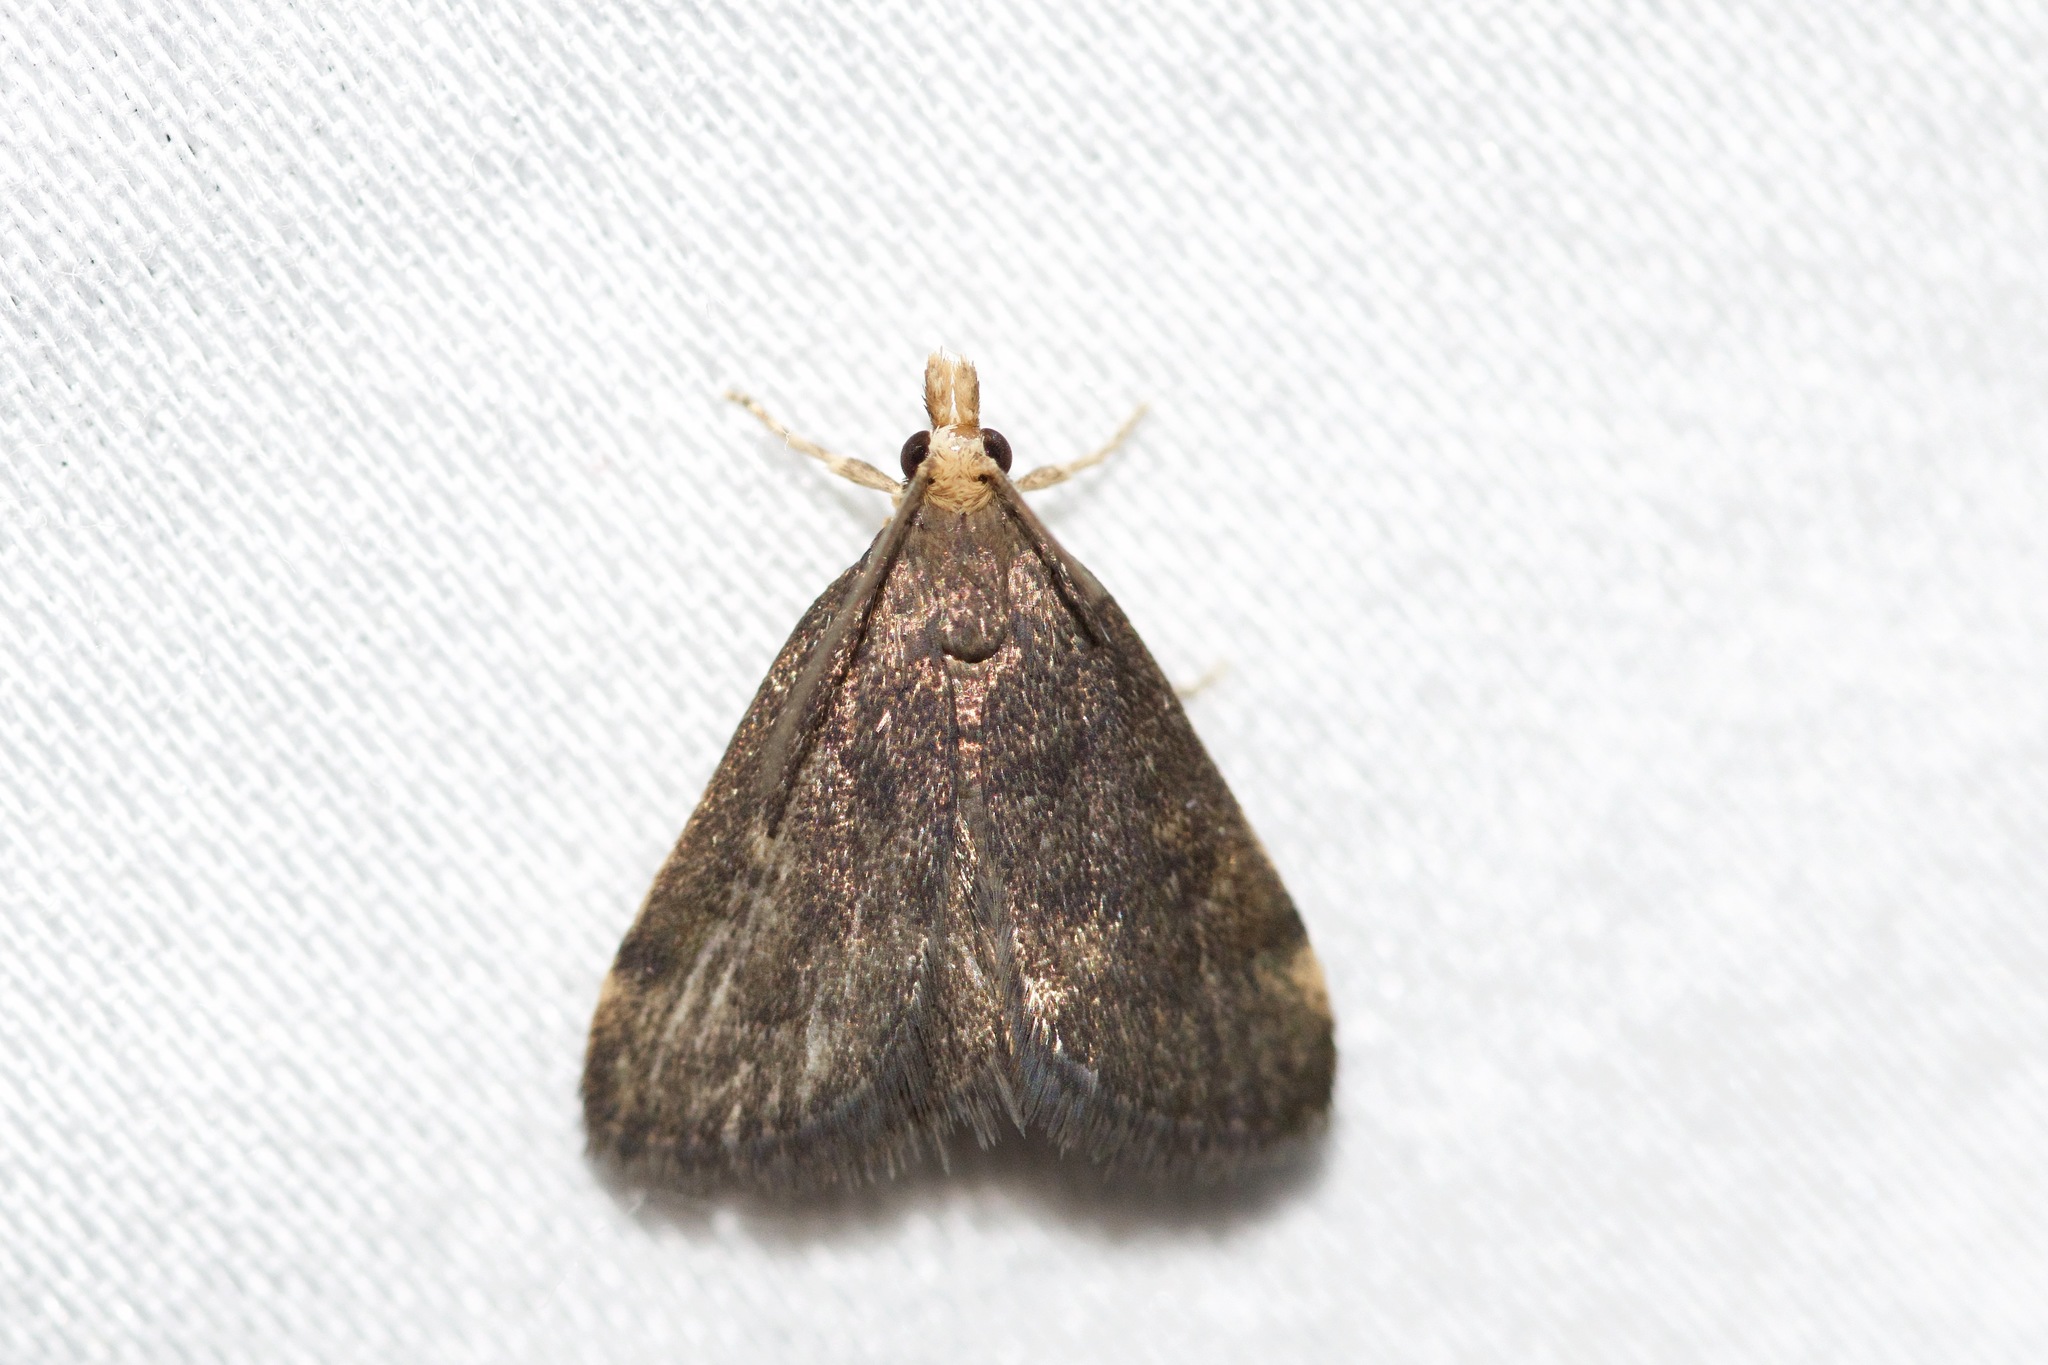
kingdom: Animalia
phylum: Arthropoda
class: Insecta
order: Lepidoptera
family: Crambidae
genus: Pyrausta
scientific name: Pyrausta merrickalis
